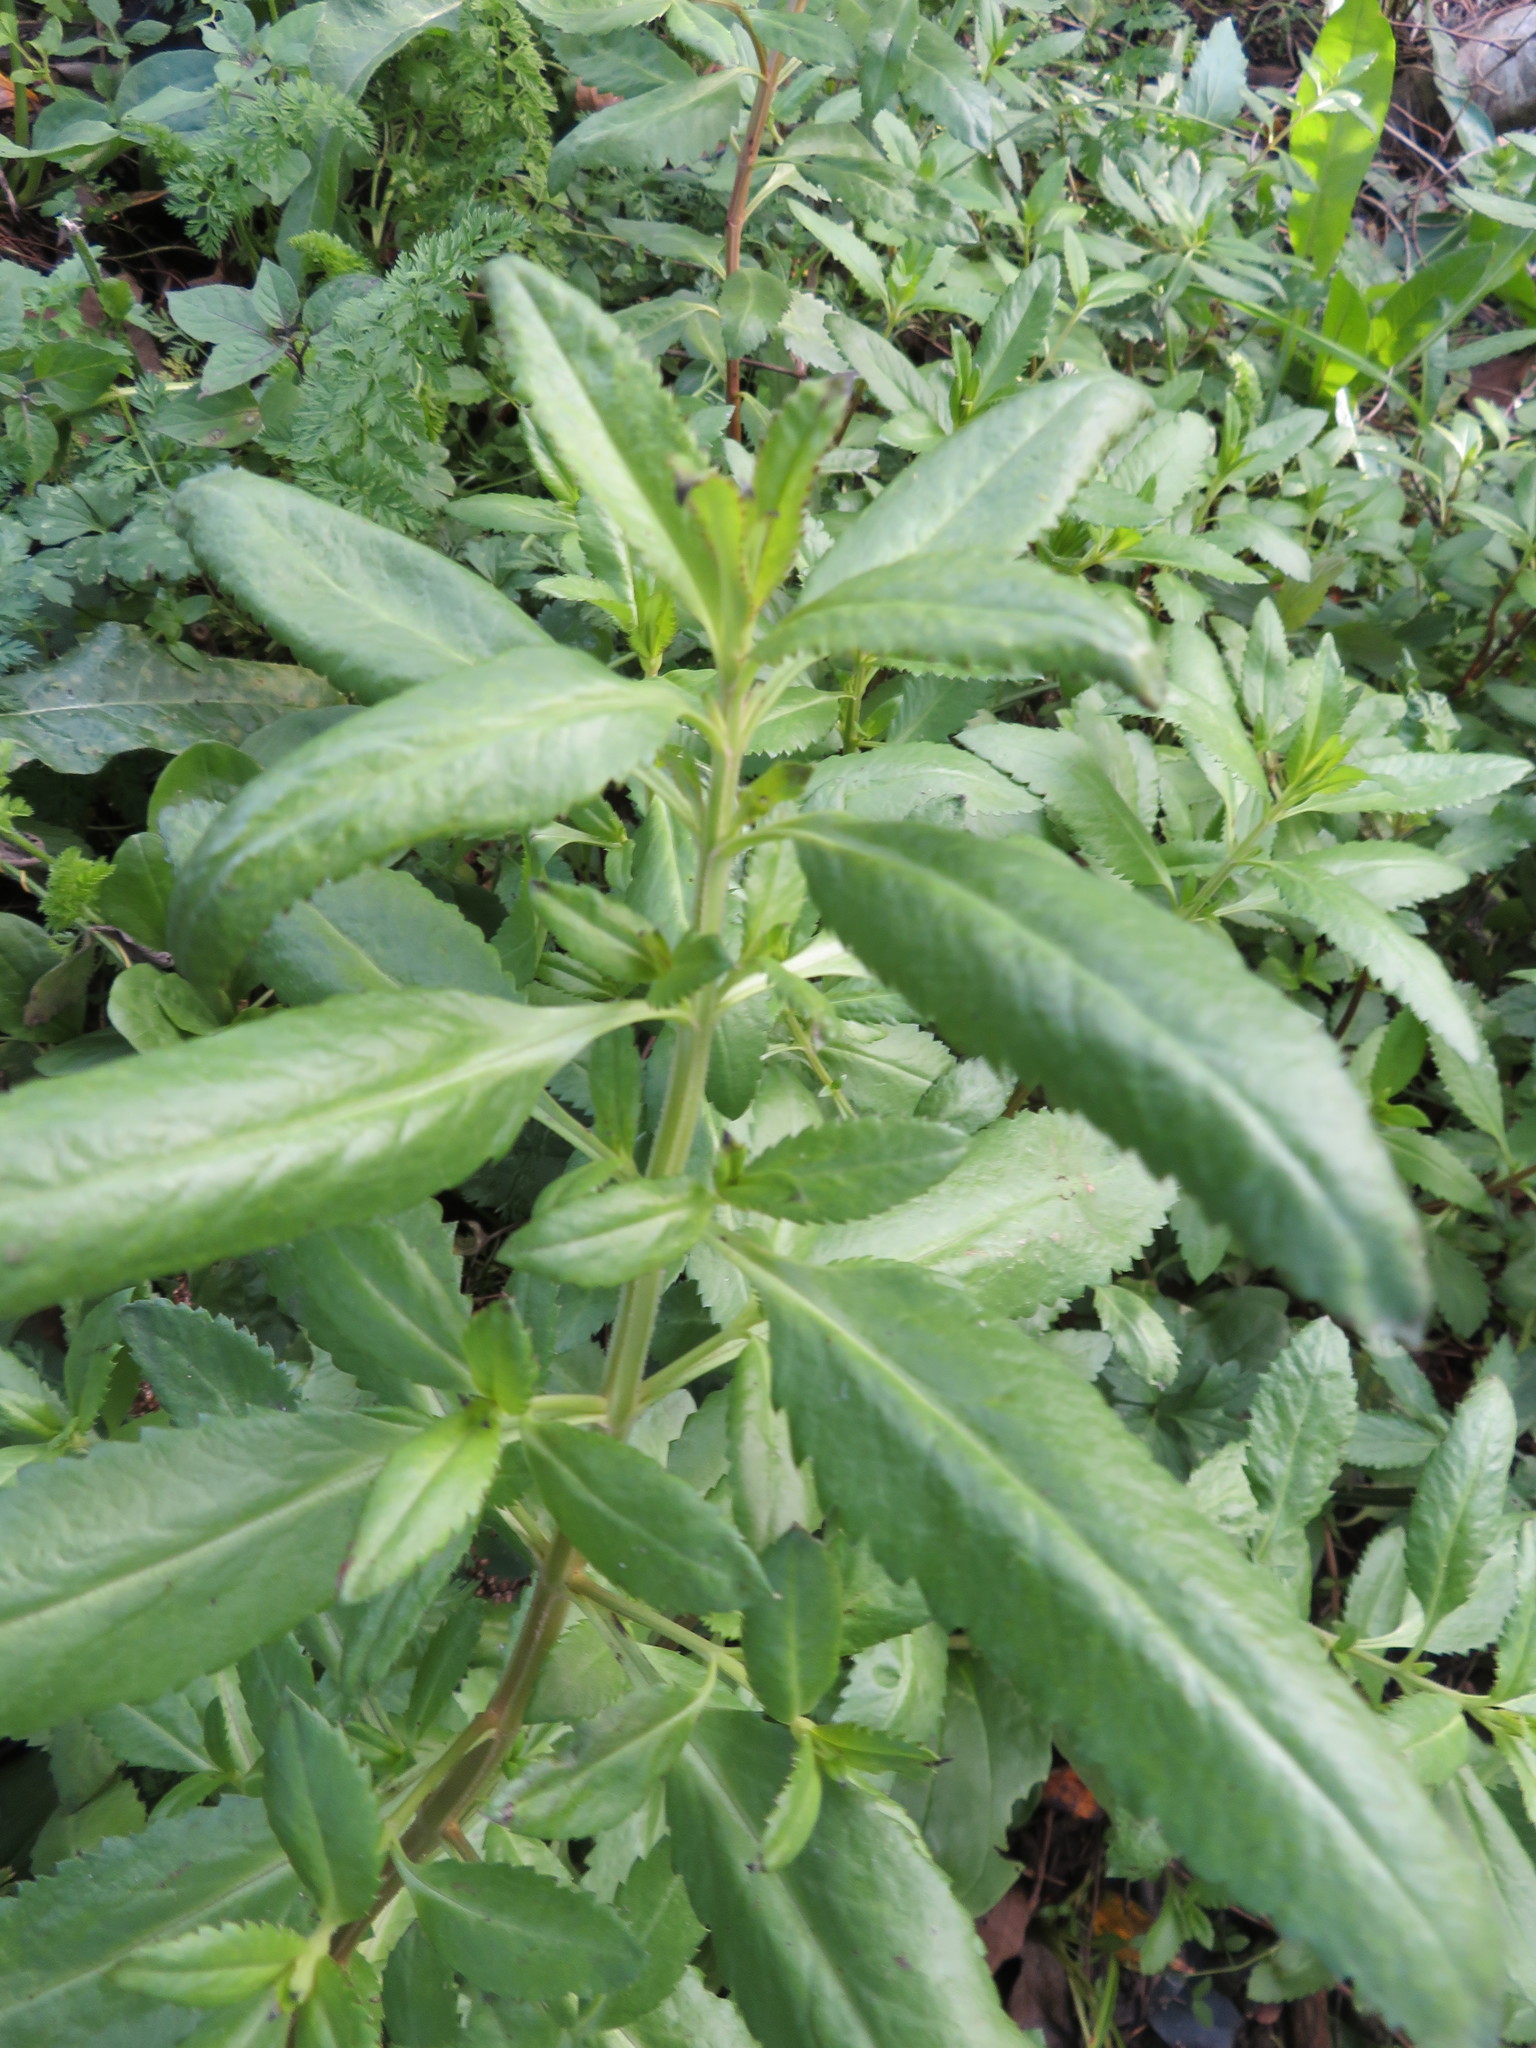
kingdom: Plantae
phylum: Tracheophyta
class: Magnoliopsida
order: Saxifragales
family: Haloragaceae
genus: Haloragis
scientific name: Haloragis erecta
